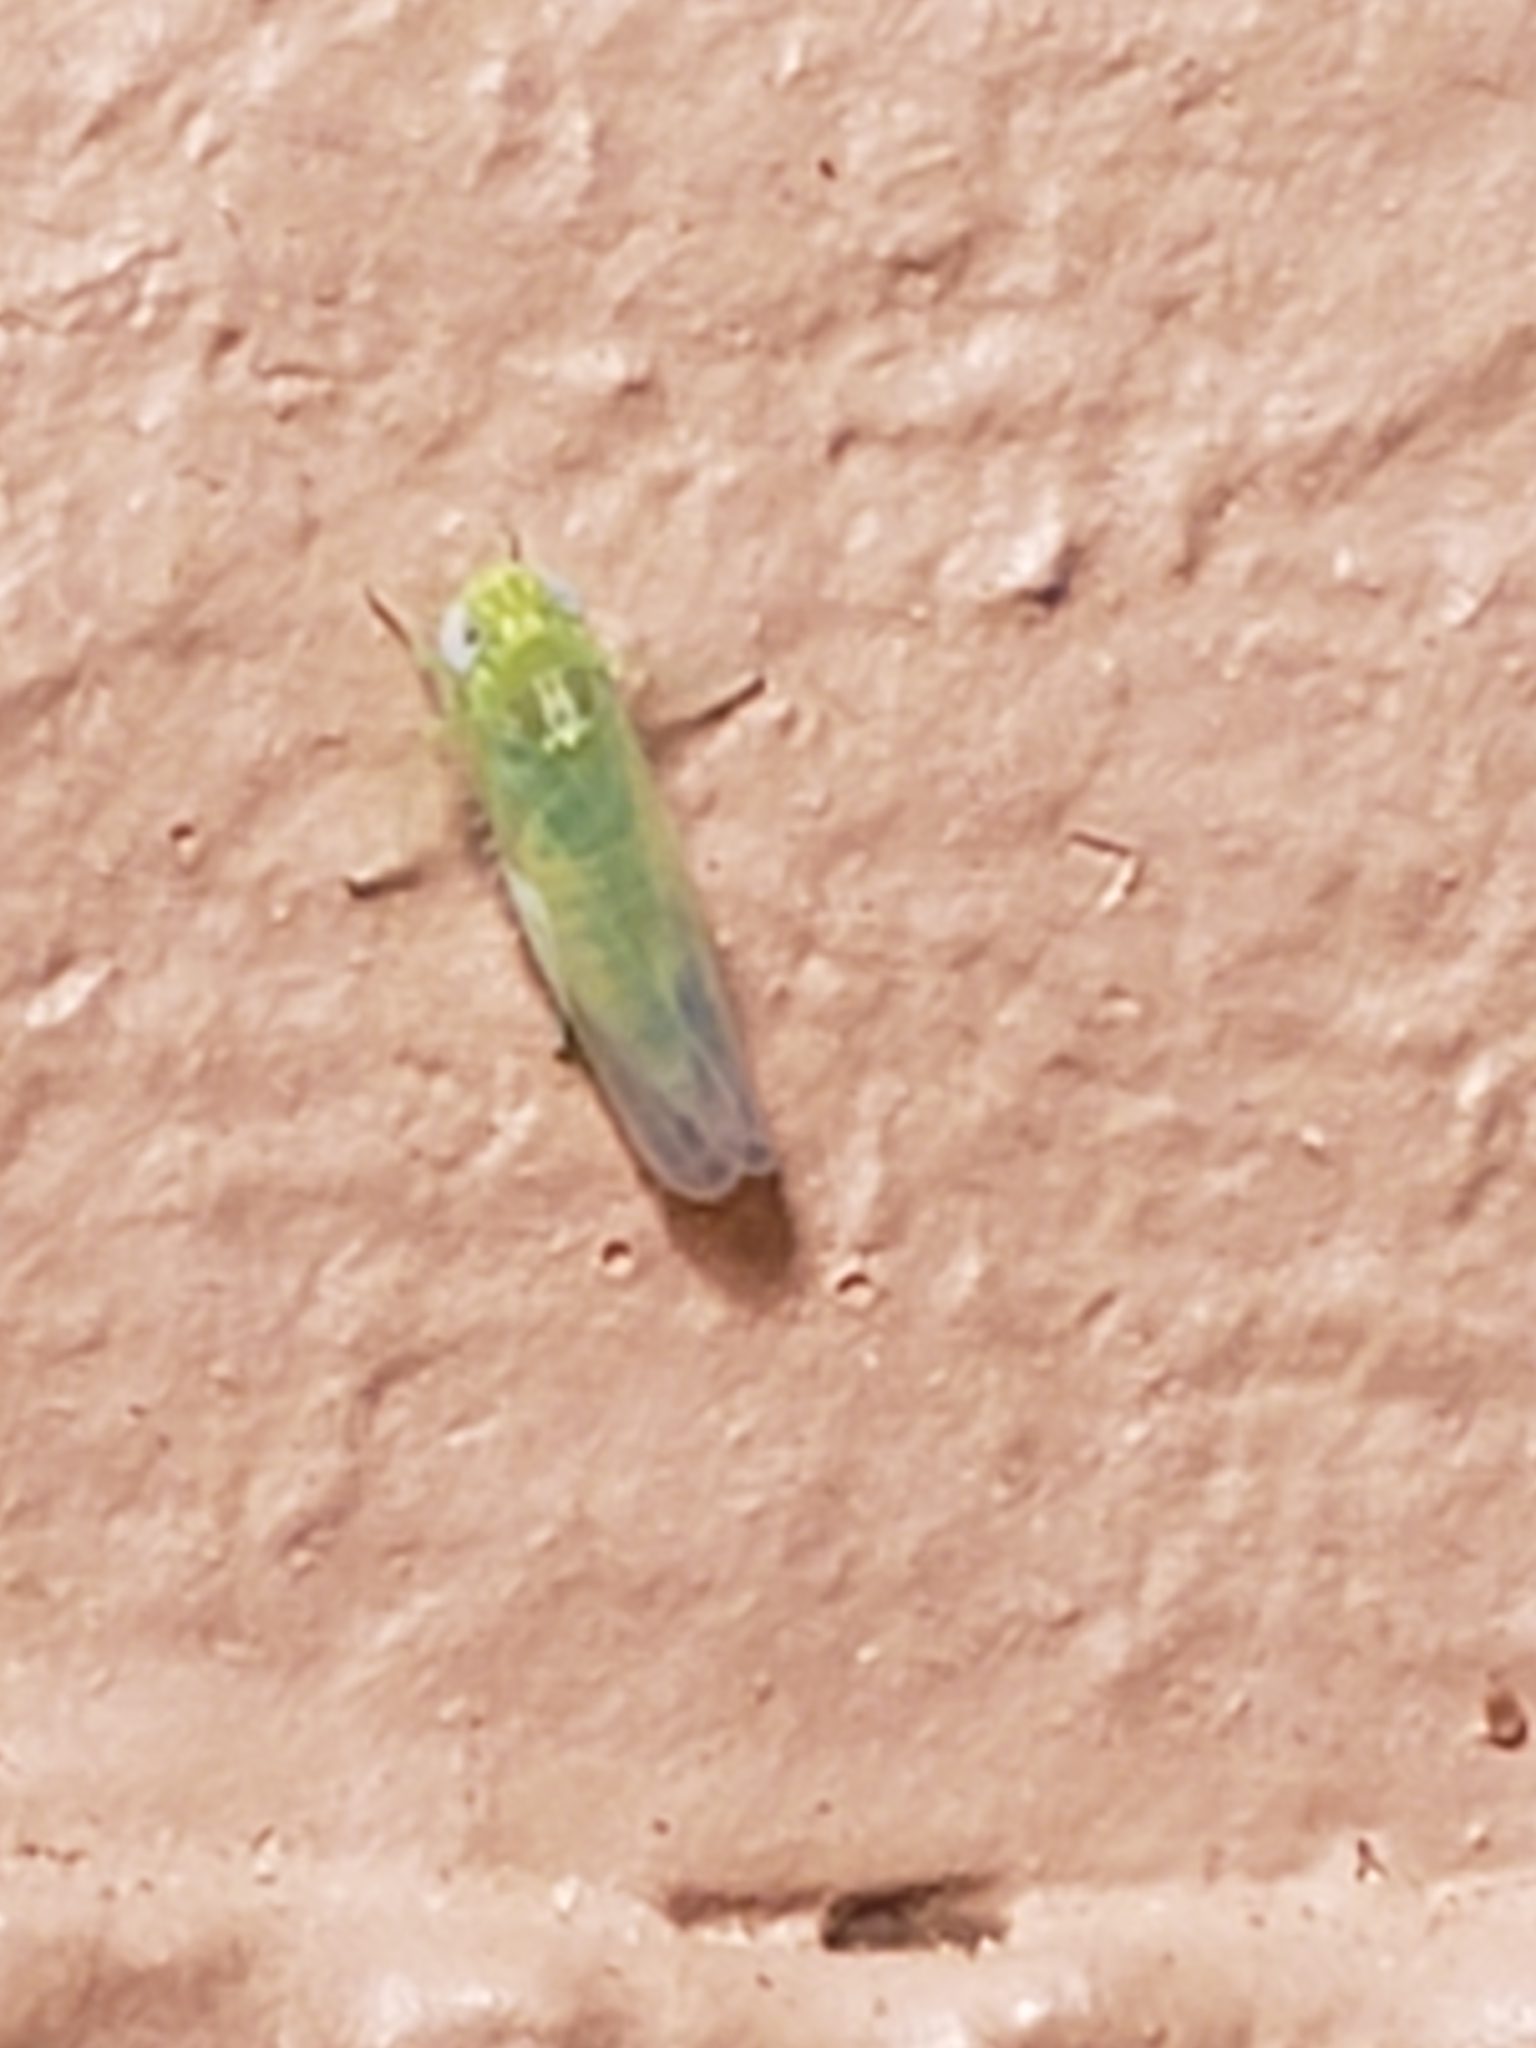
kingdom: Animalia
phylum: Arthropoda
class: Insecta
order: Hemiptera
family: Cicadellidae
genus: Empoasca
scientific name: Empoasca fabae
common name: Potato leafhopper
